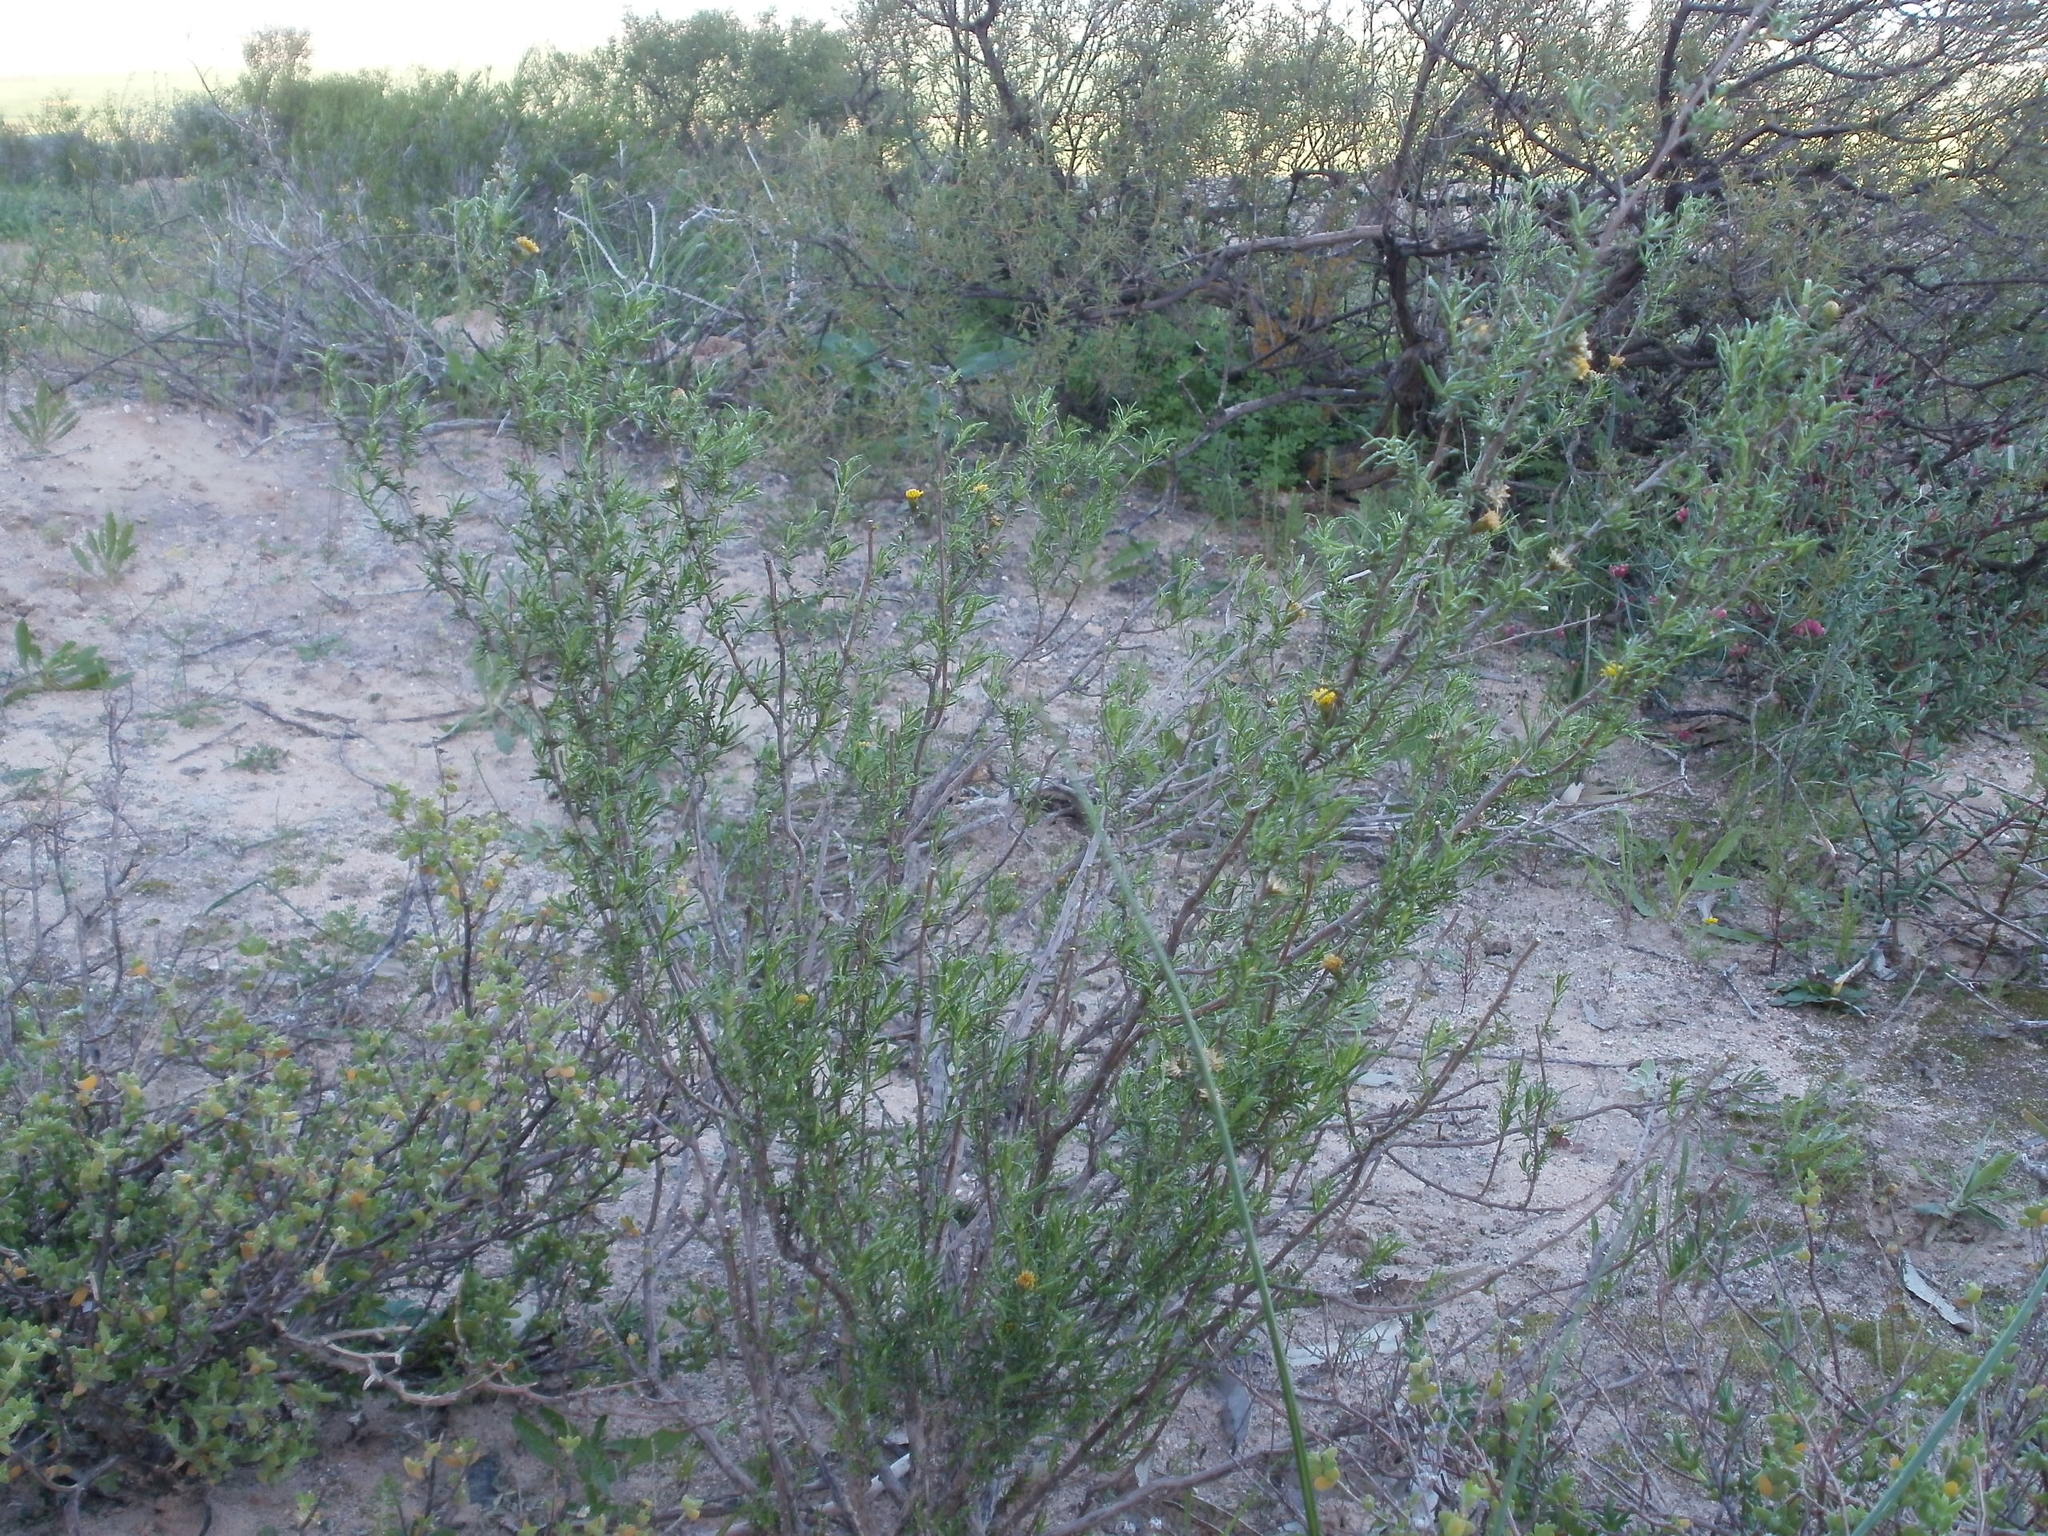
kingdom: Plantae
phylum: Tracheophyta
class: Magnoliopsida
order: Asterales
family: Asteraceae
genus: Marasmodes
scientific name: Marasmodes schlechteri
